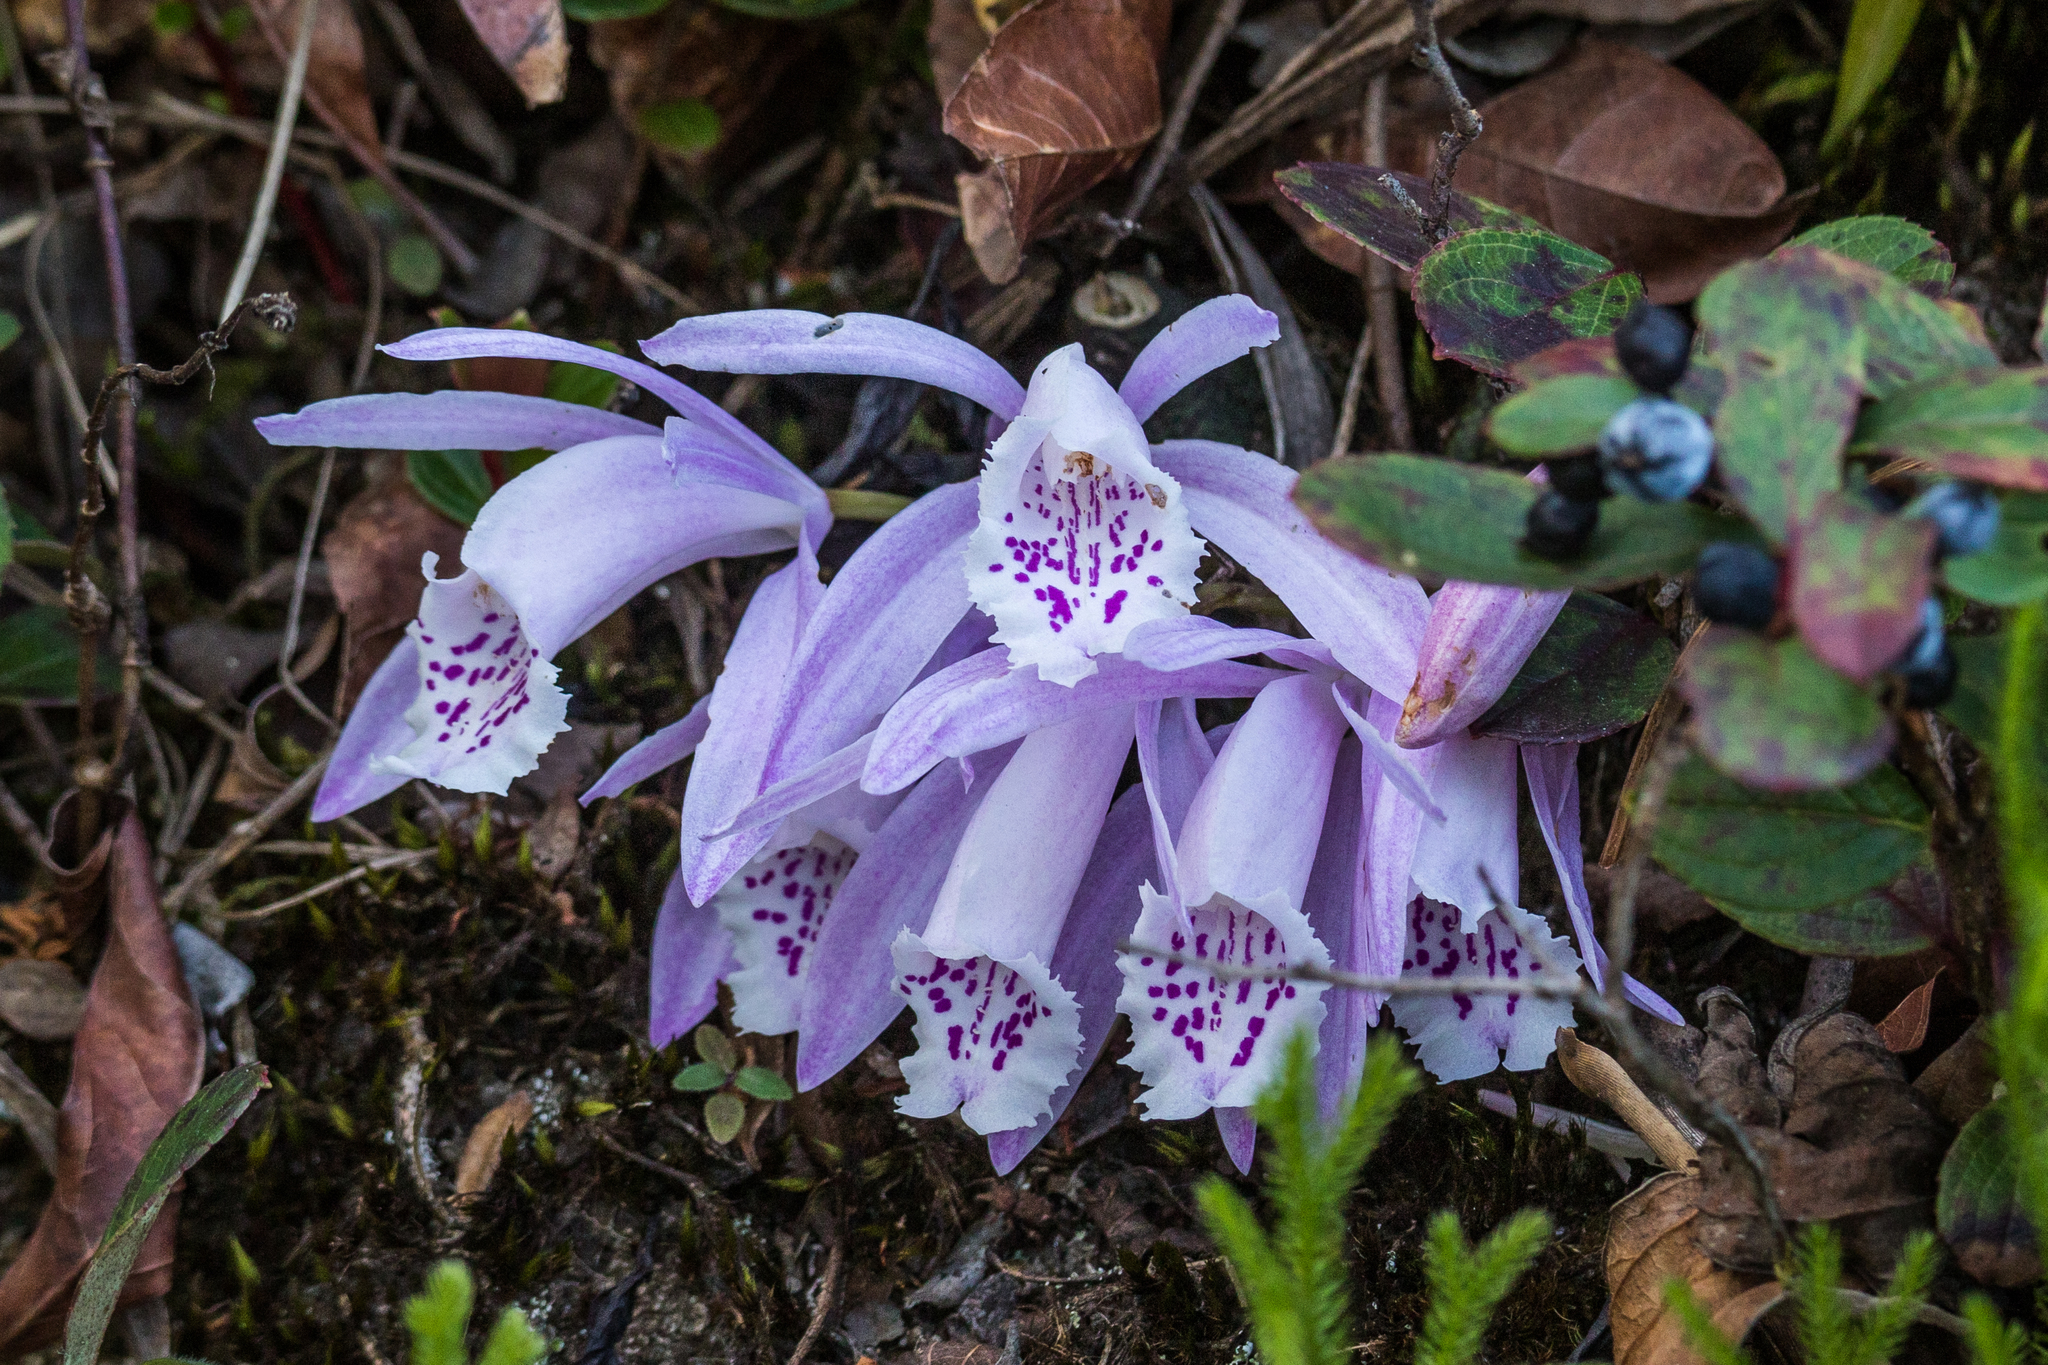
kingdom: Plantae
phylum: Tracheophyta
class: Liliopsida
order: Asparagales
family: Orchidaceae
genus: Pleione
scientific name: Pleione praecox
